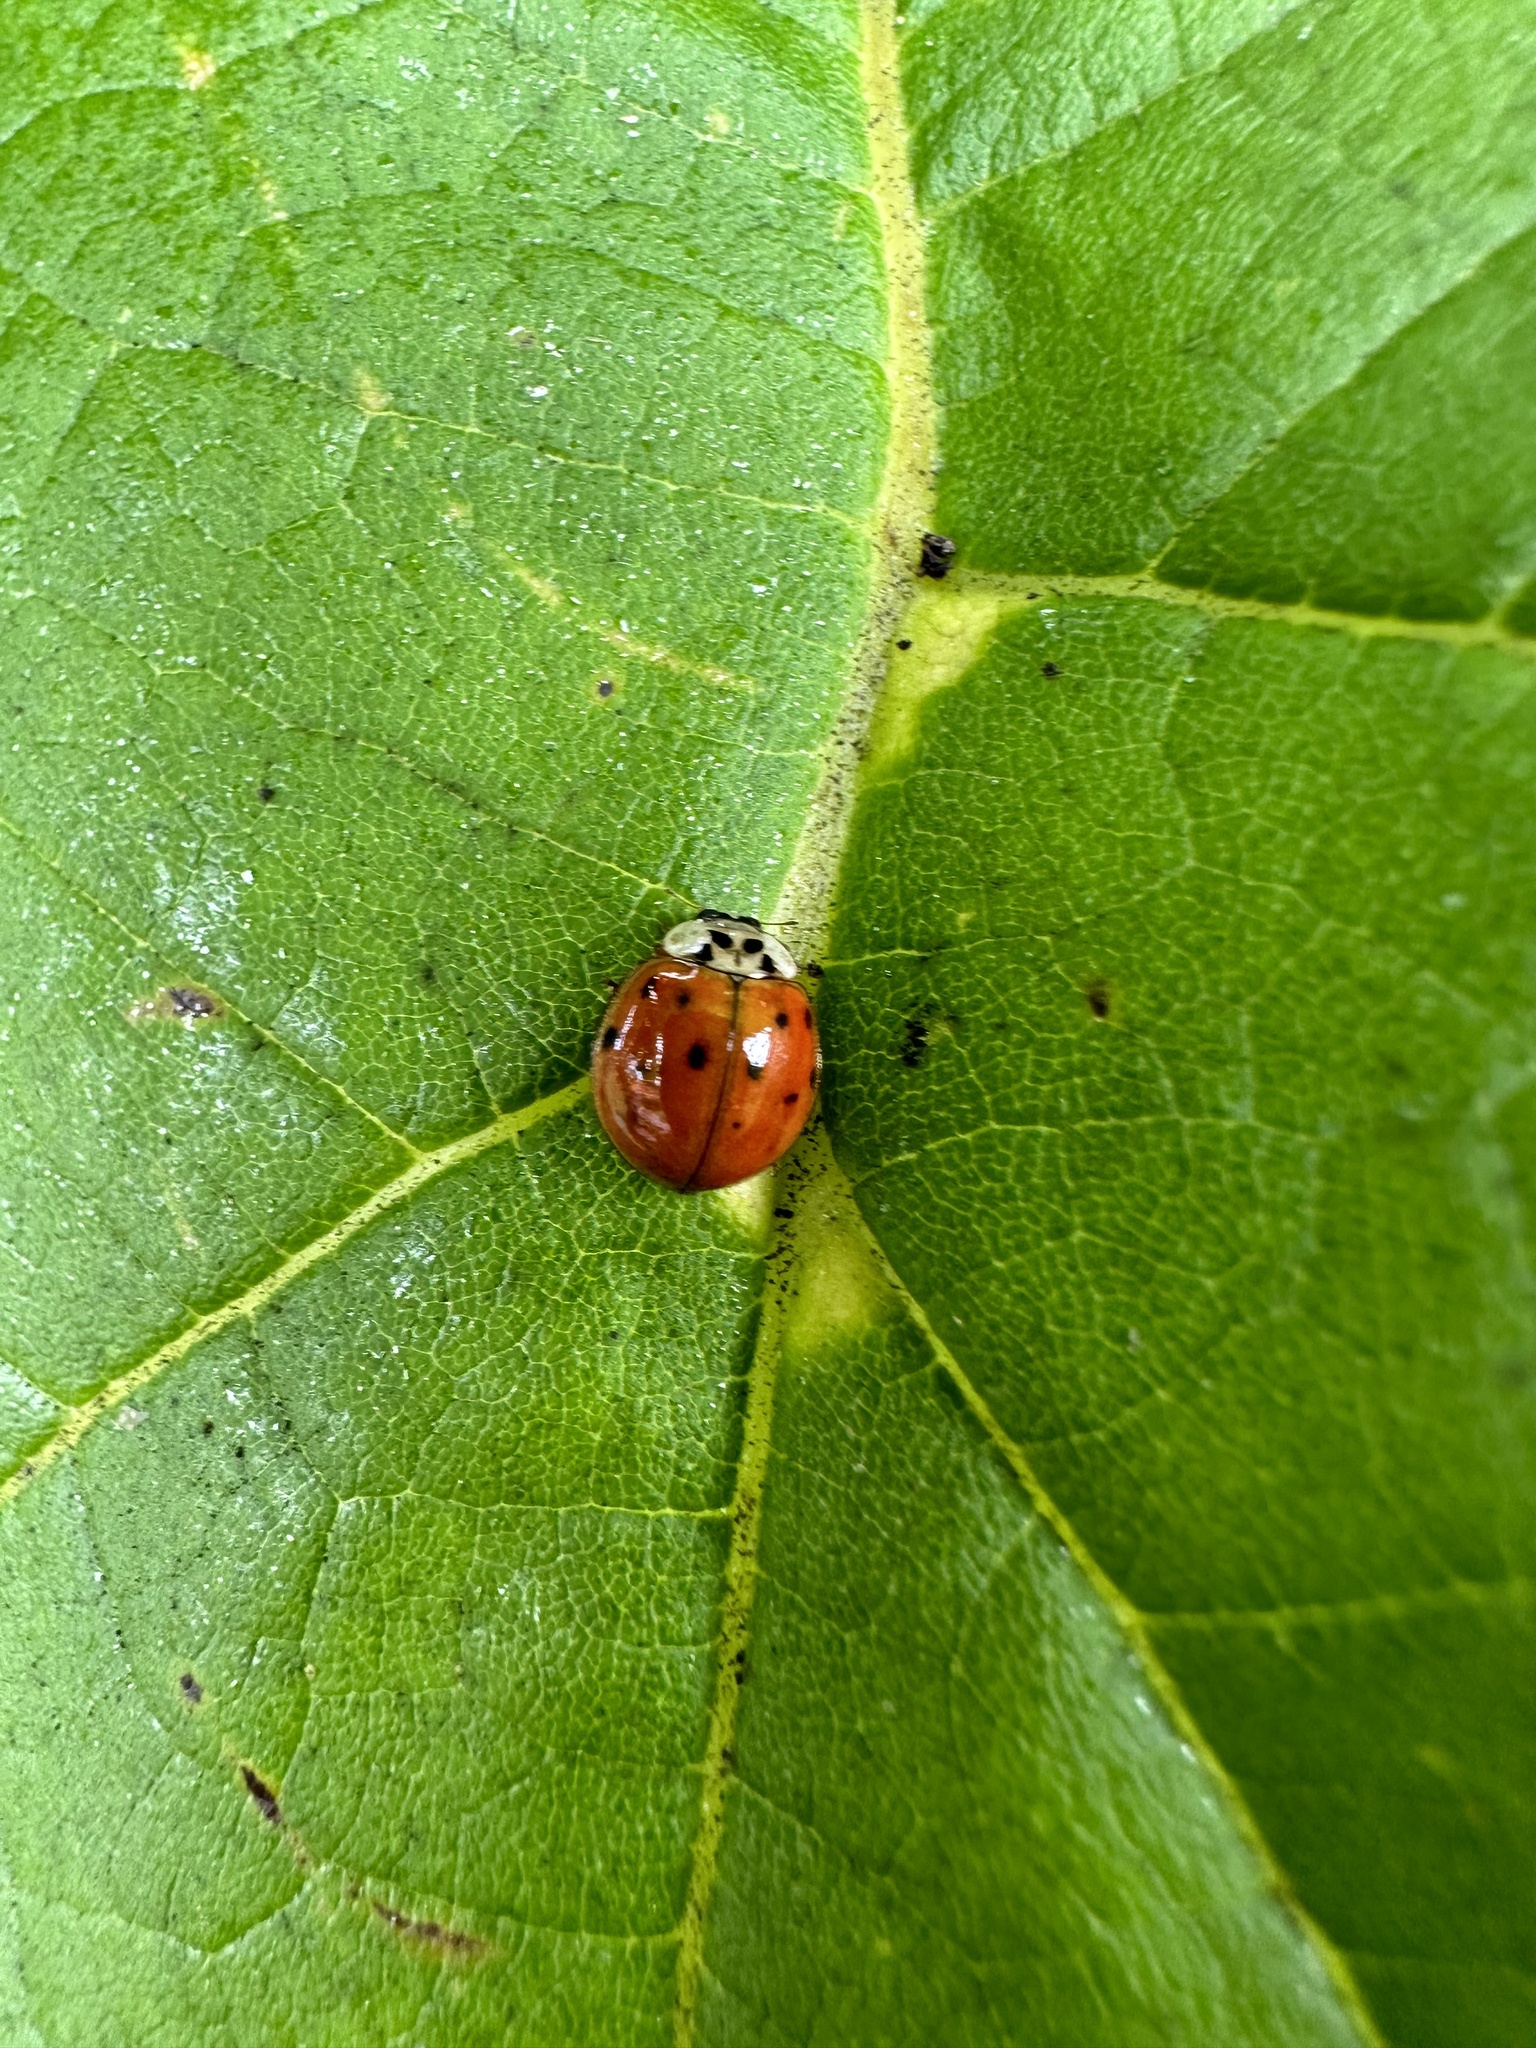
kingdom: Animalia
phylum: Arthropoda
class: Insecta
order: Coleoptera
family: Coccinellidae
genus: Harmonia
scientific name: Harmonia axyridis
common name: Harlequin ladybird
